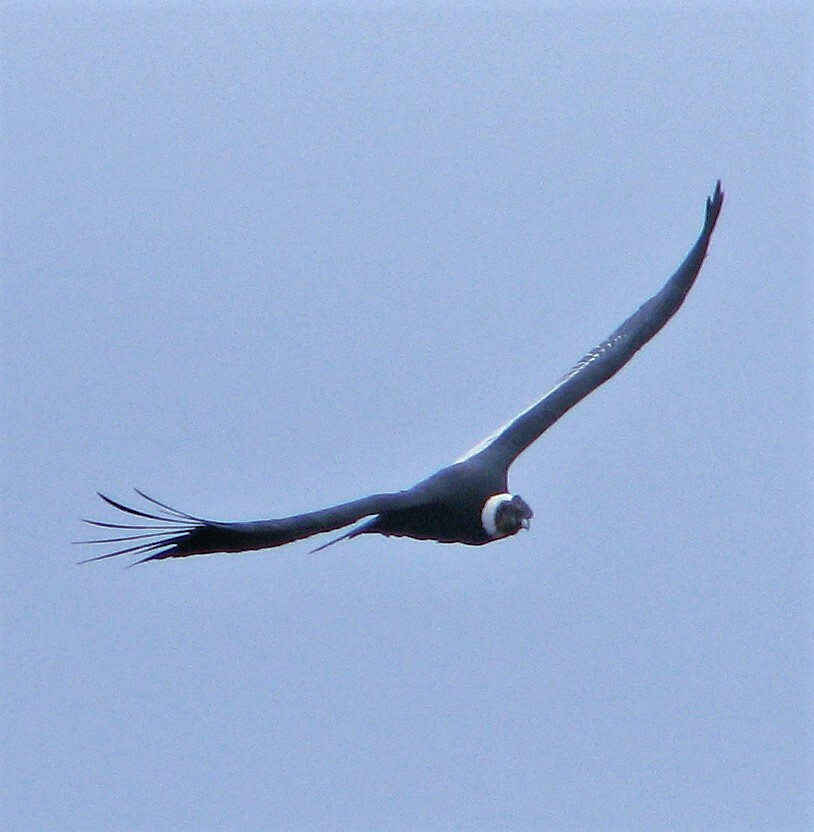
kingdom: Animalia
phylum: Chordata
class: Aves
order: Accipitriformes
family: Cathartidae
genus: Vultur
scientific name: Vultur gryphus
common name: Andean condor
